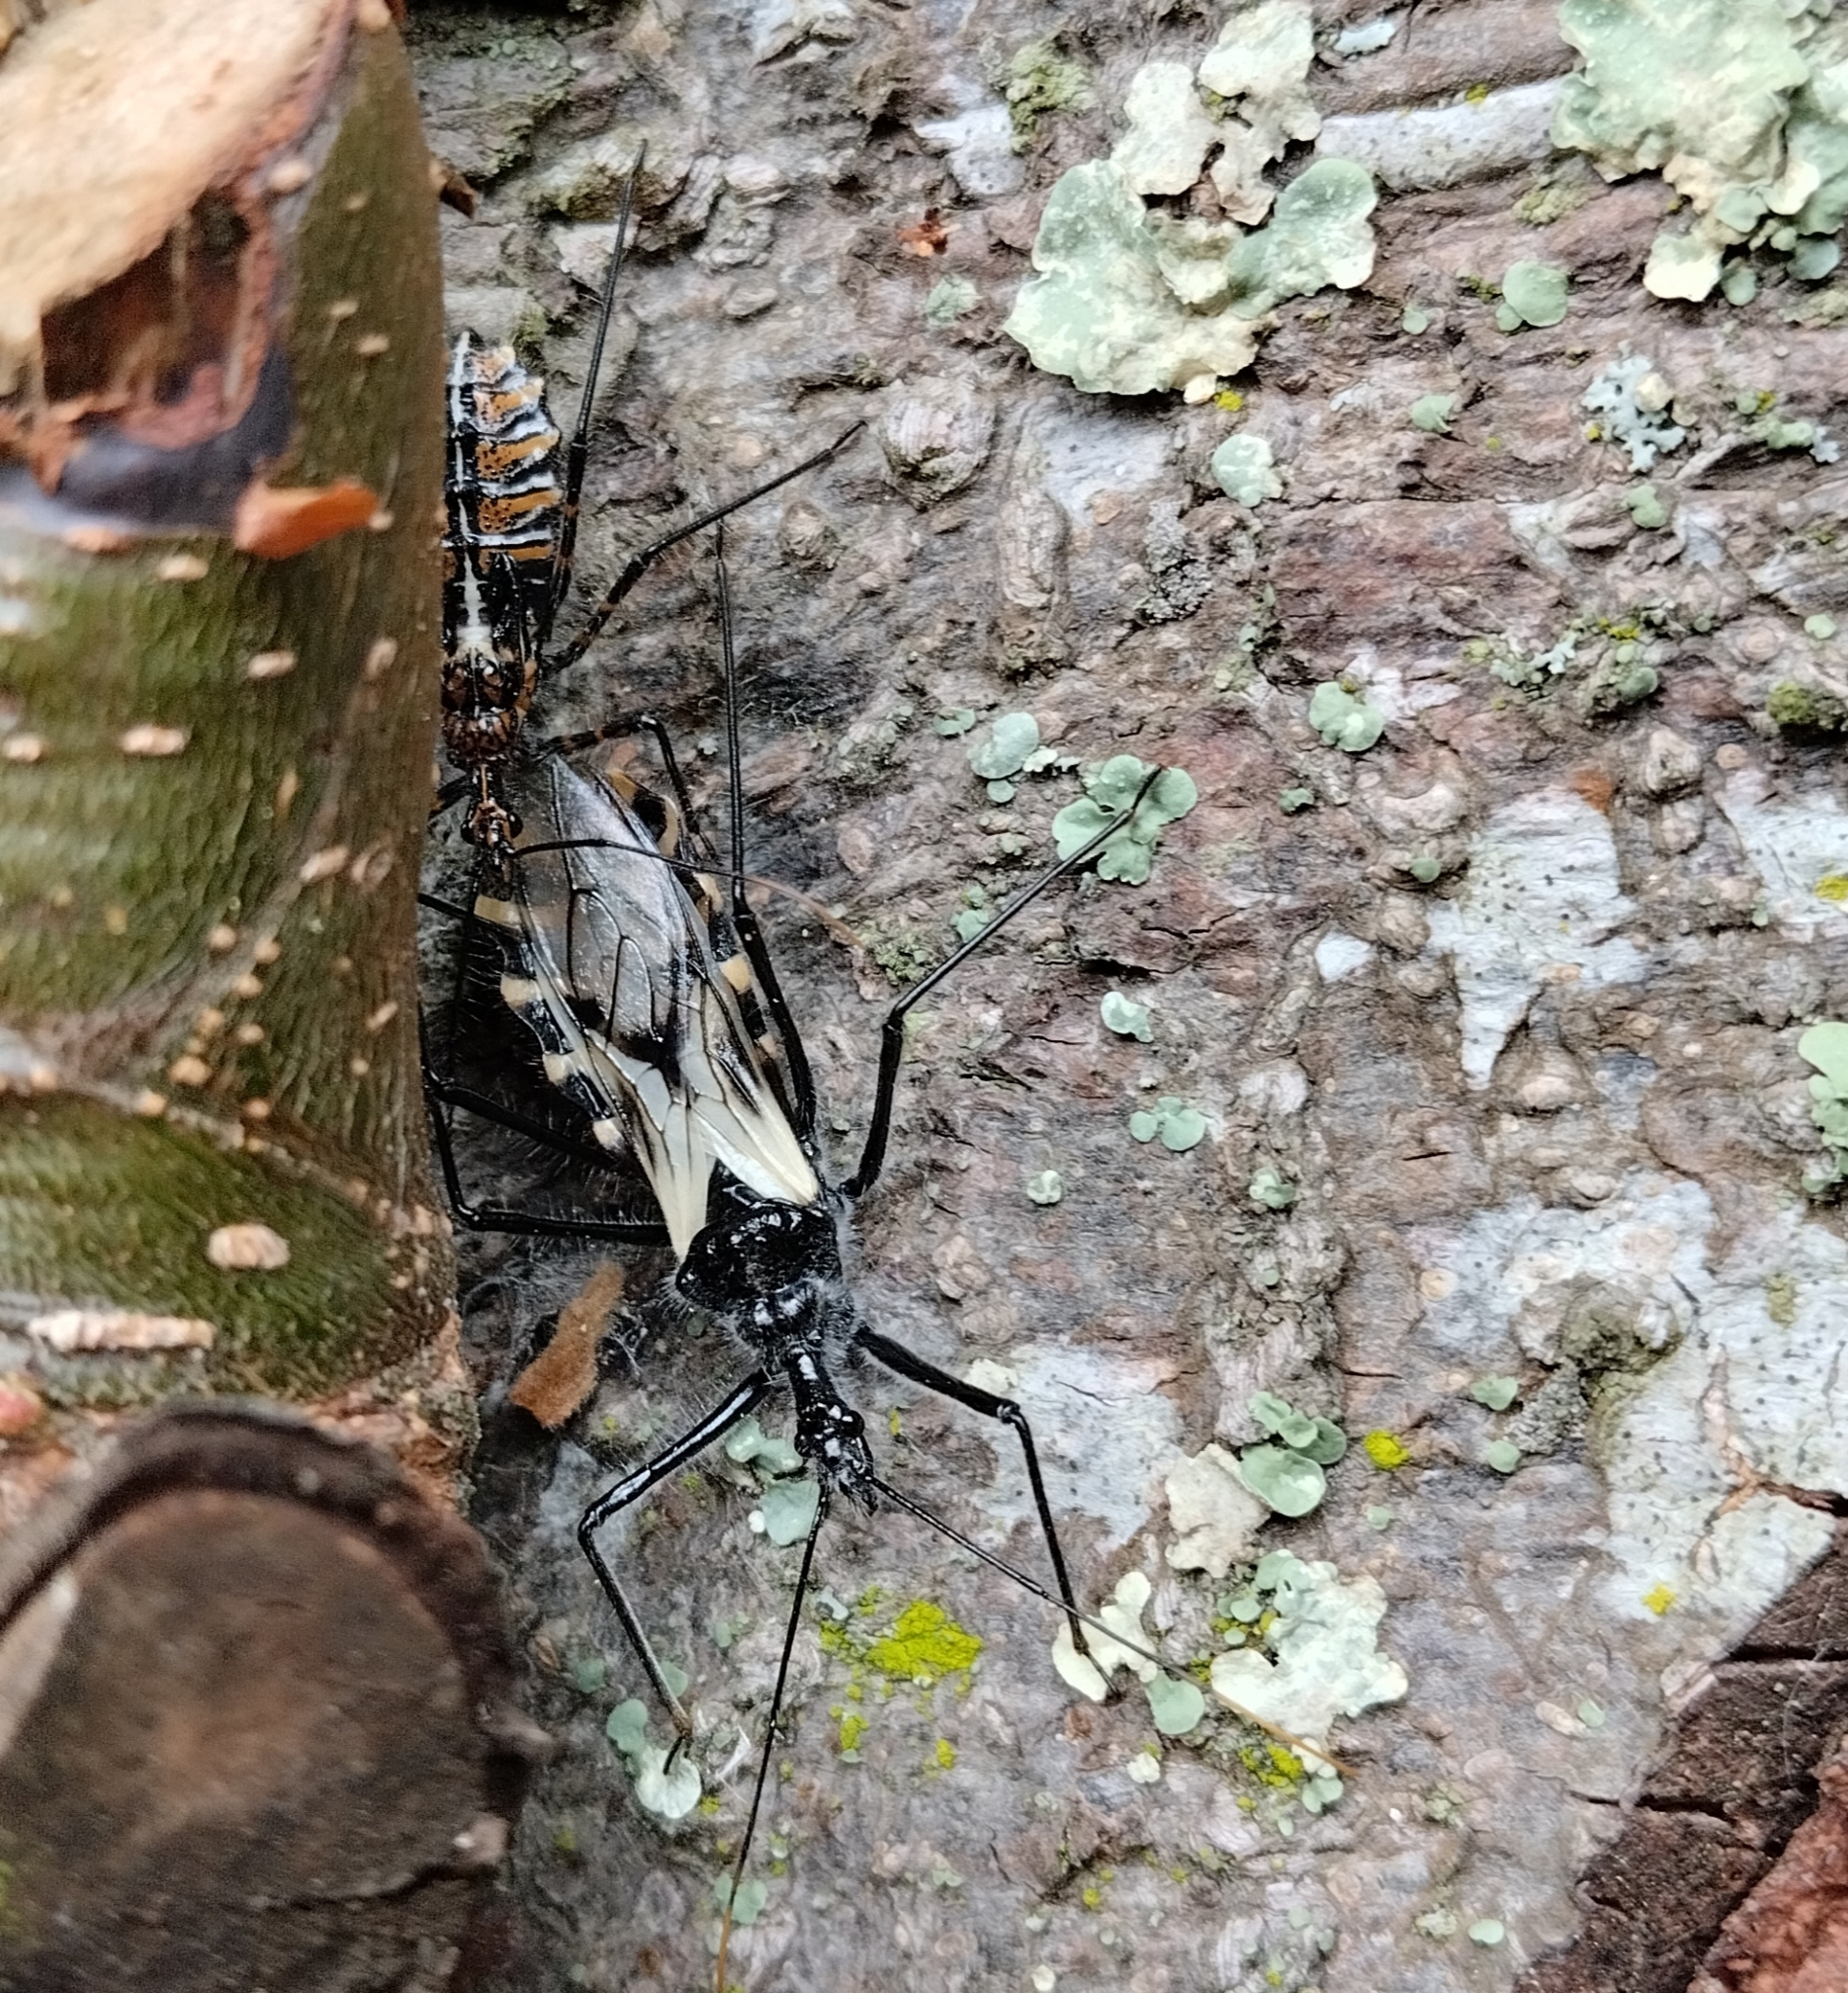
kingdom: Animalia
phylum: Arthropoda
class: Insecta
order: Hemiptera
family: Reduviidae
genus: Ambastus
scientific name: Ambastus villosus
